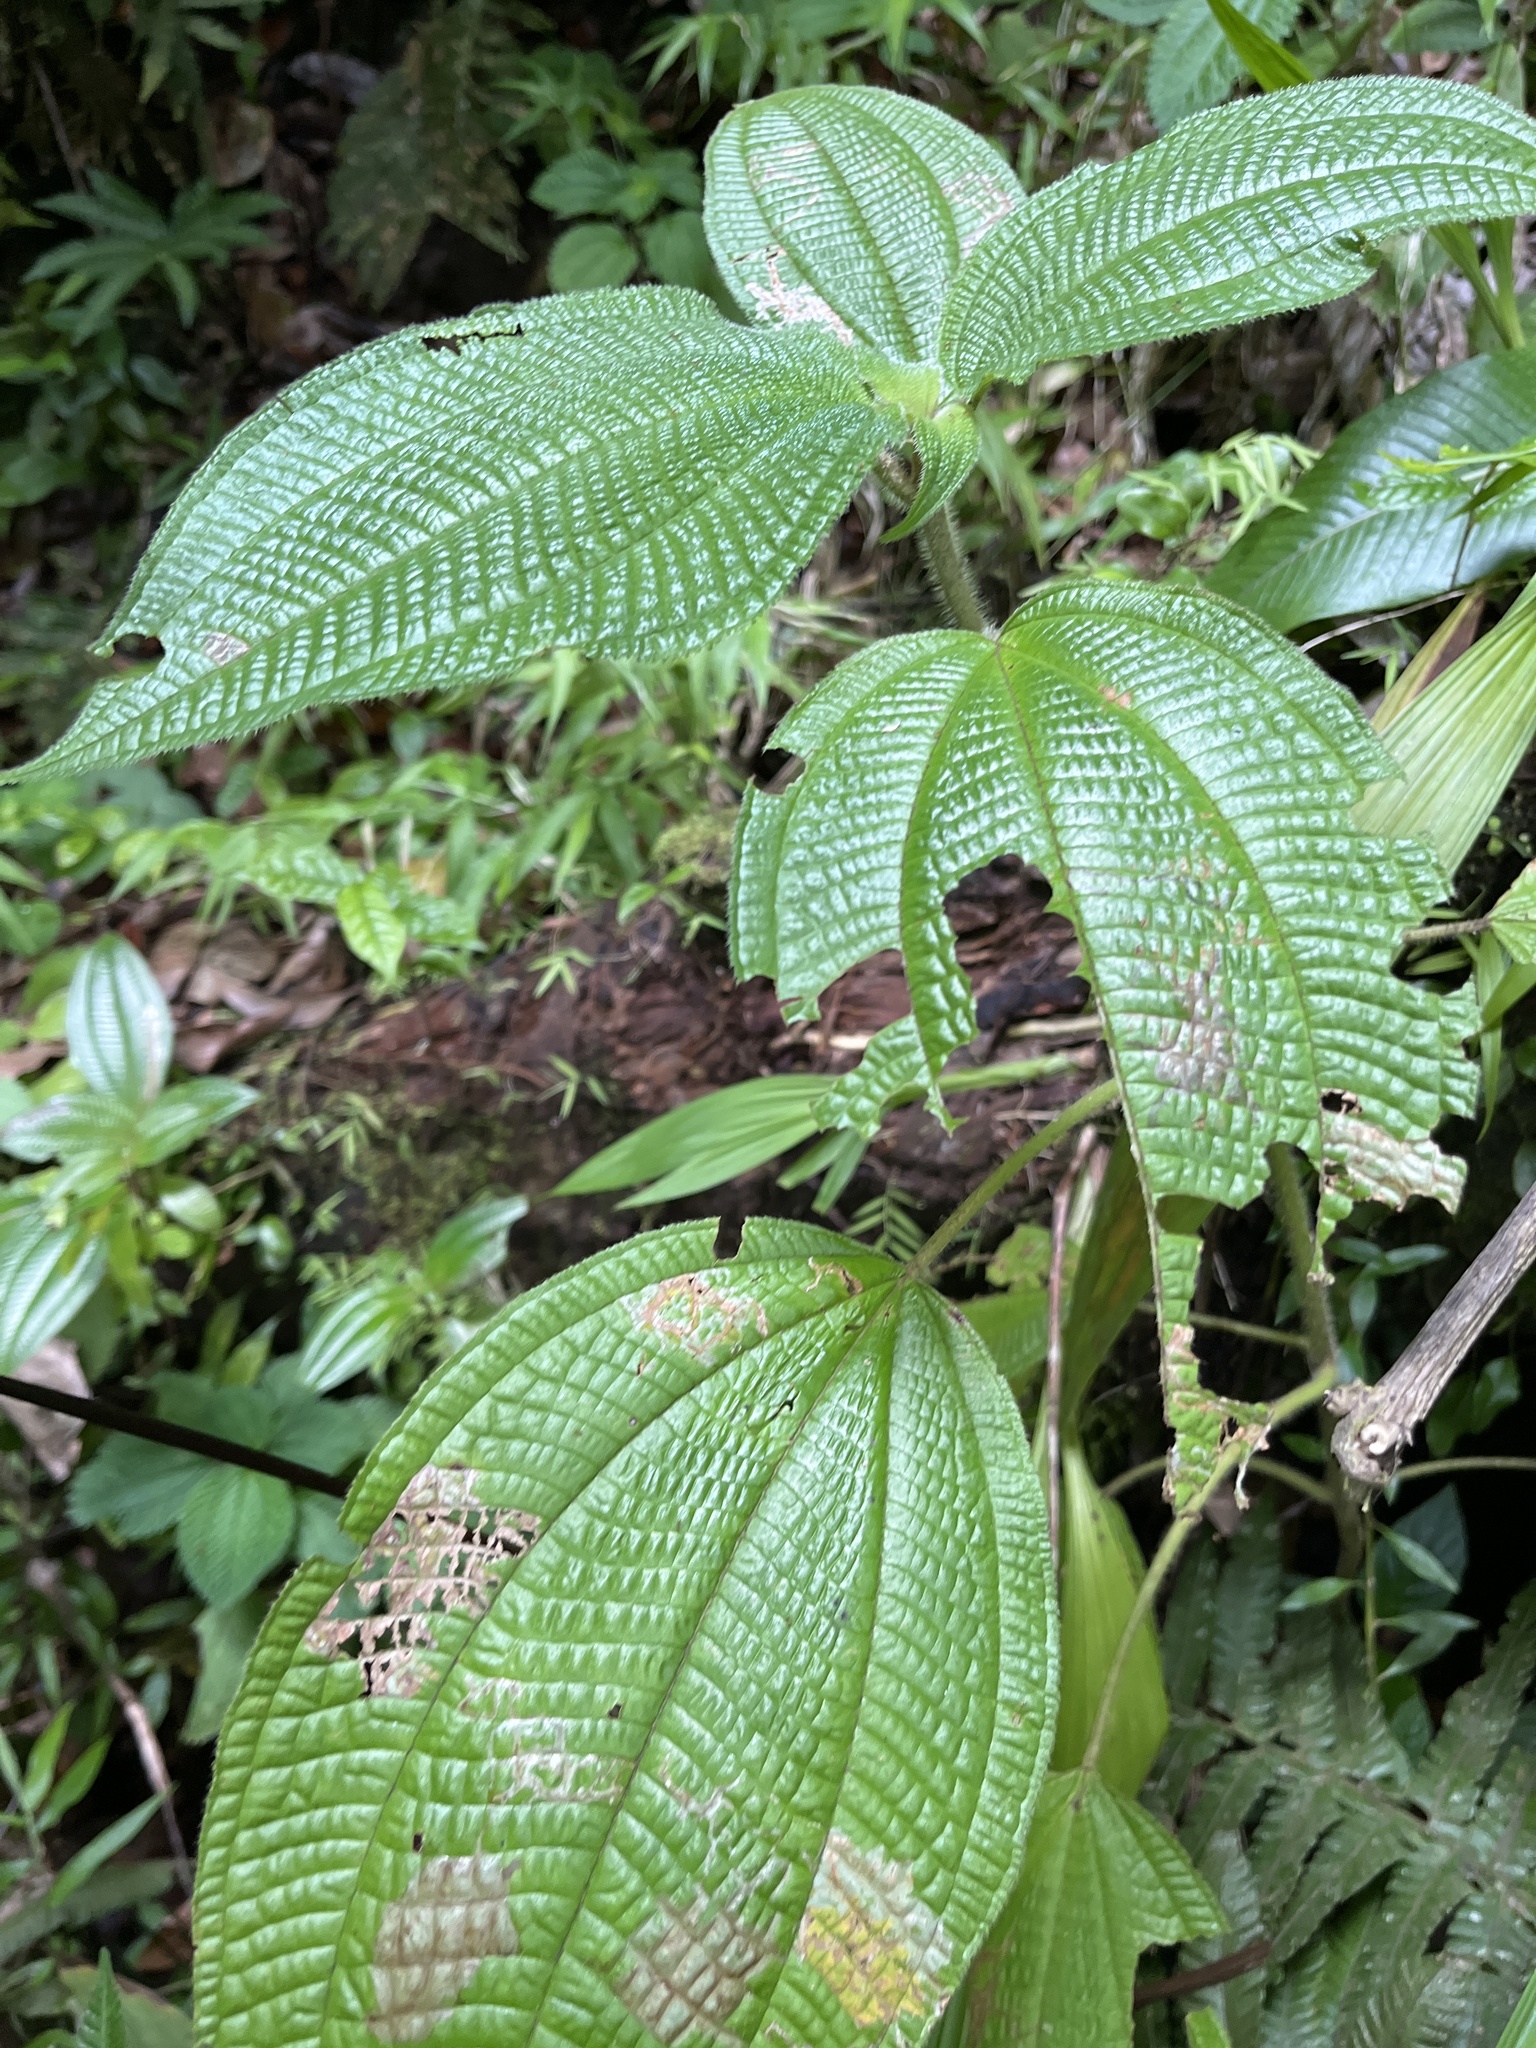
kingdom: Plantae
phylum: Tracheophyta
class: Magnoliopsida
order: Myrtales
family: Melastomataceae
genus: Miconia
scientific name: Miconia racemosa
